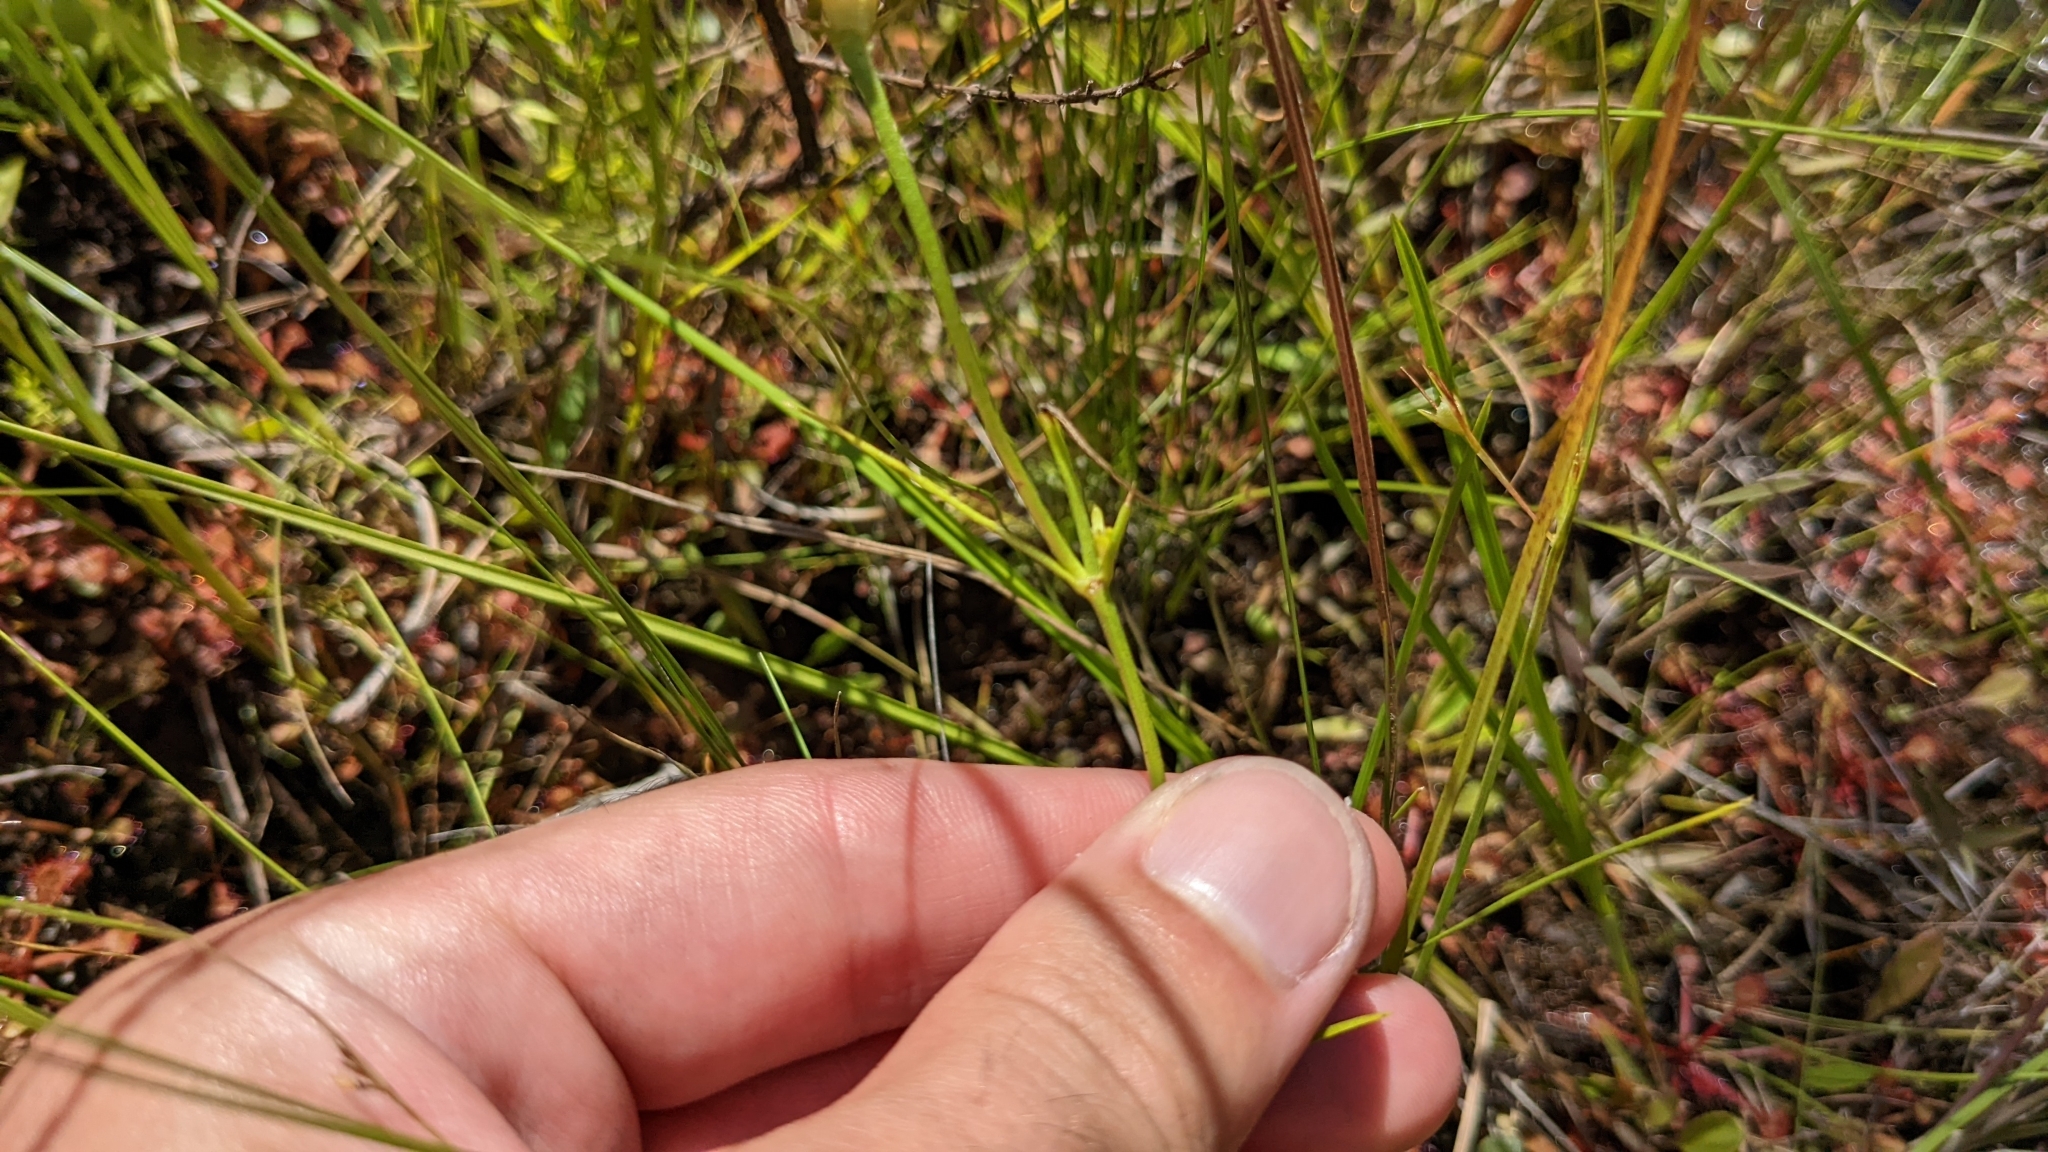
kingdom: Plantae
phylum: Tracheophyta
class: Magnoliopsida
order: Gentianales
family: Gentianaceae
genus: Sabatia
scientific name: Sabatia gentianoides
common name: Pinewoods rose-gentian
